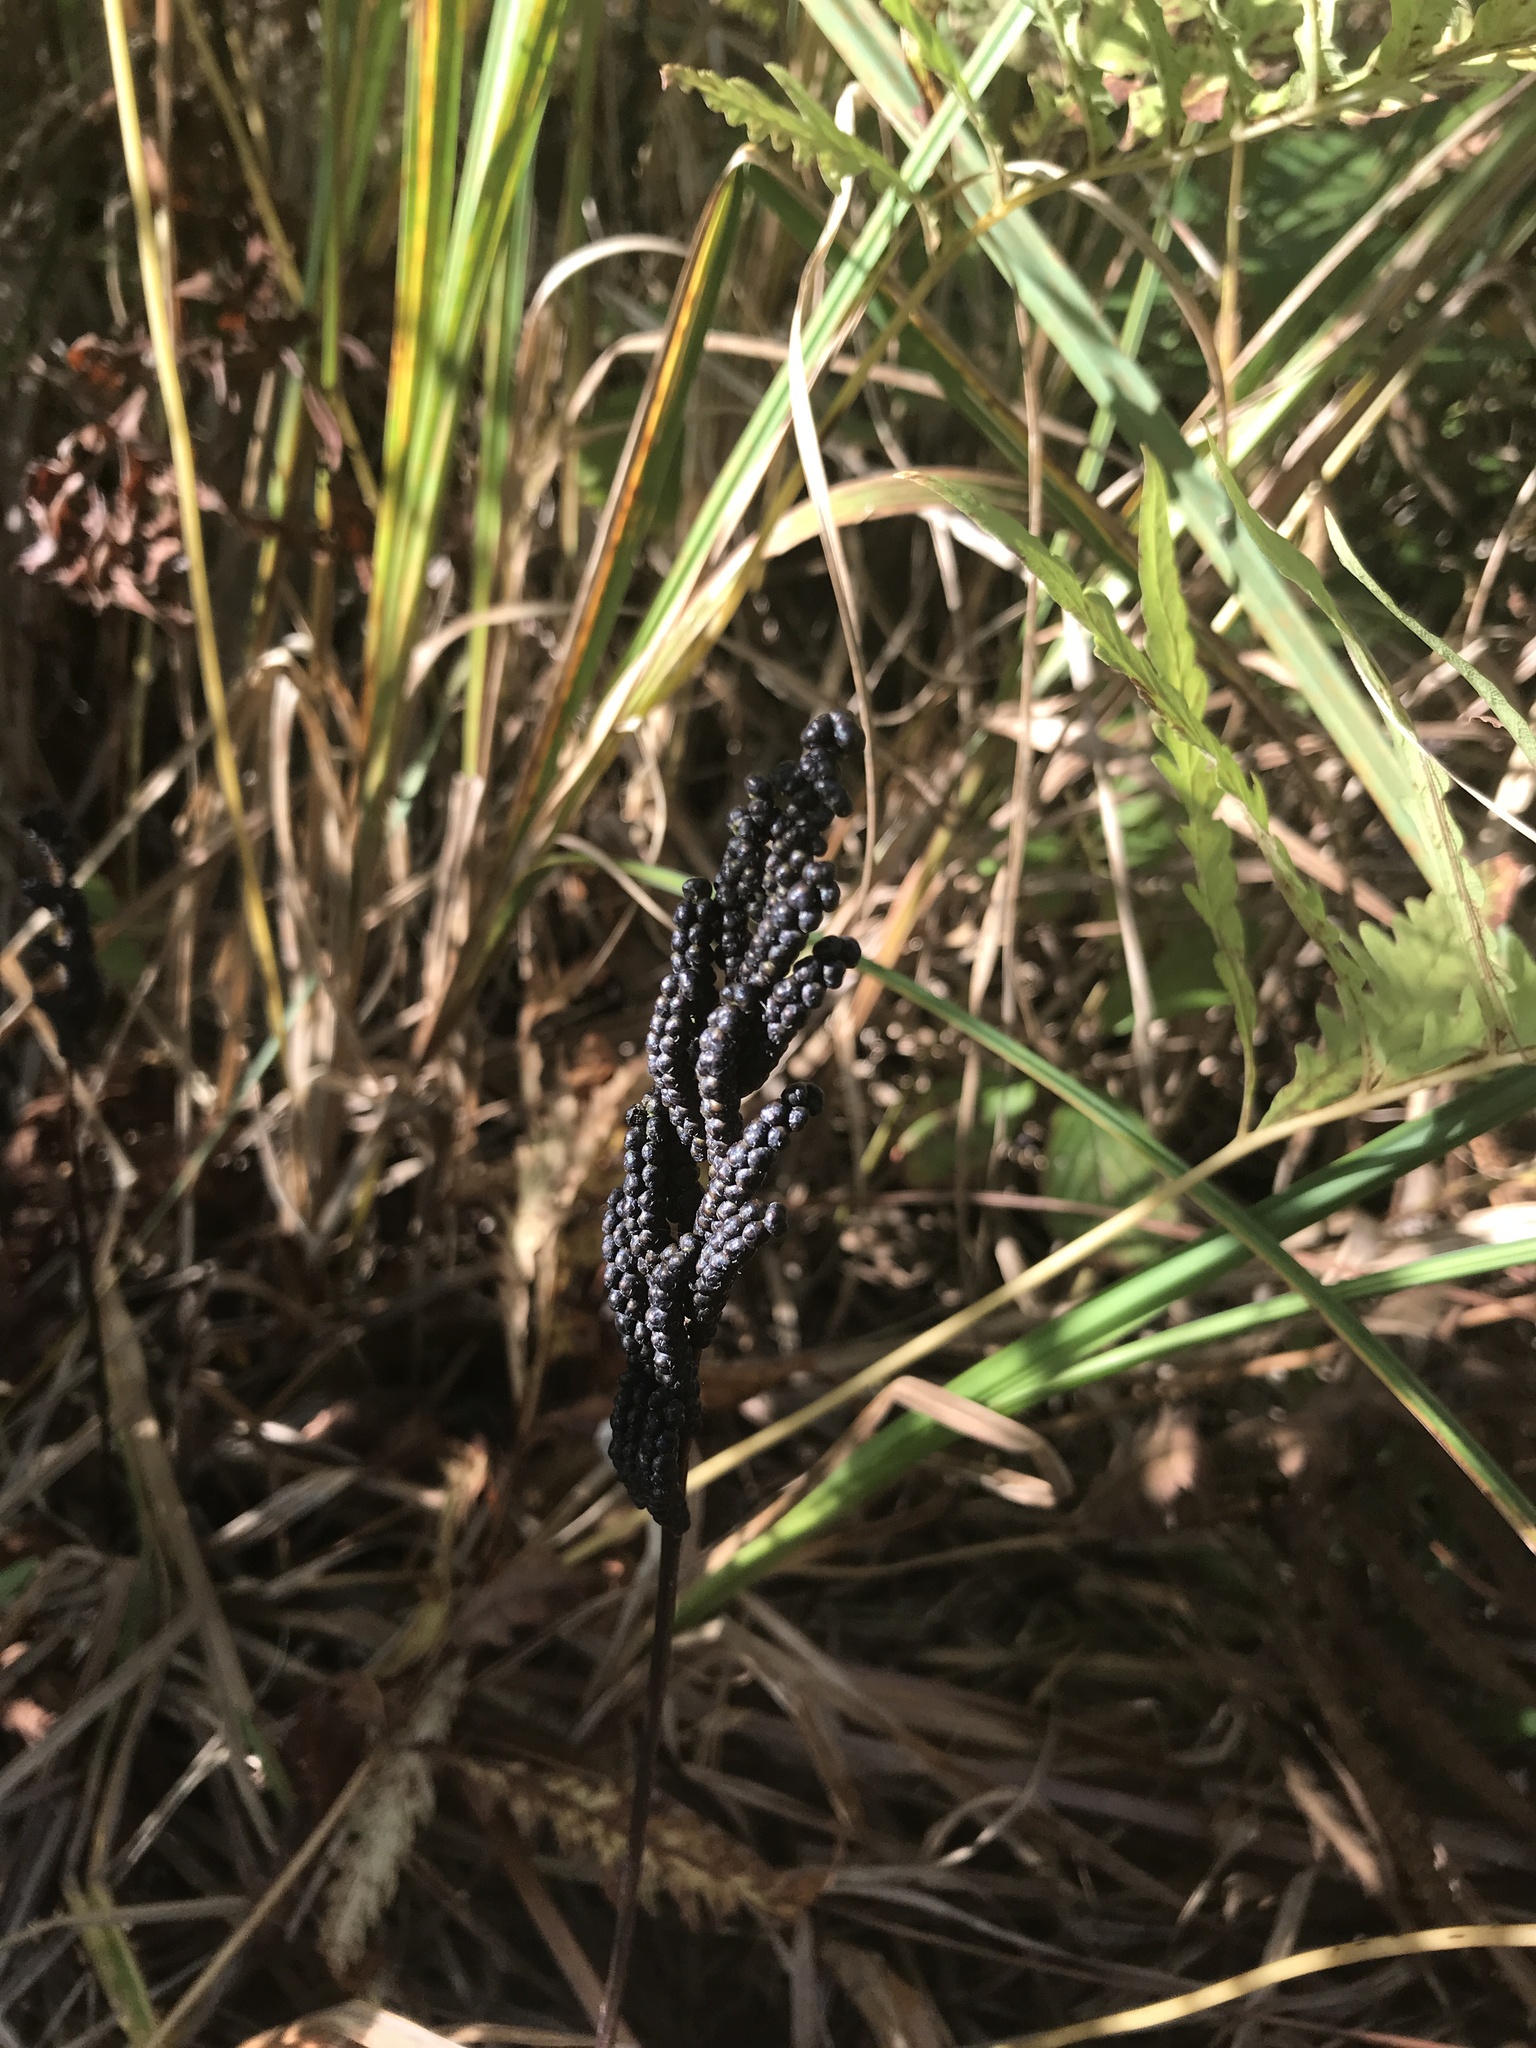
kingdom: Plantae
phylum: Tracheophyta
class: Polypodiopsida
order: Polypodiales
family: Onocleaceae
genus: Onoclea
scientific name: Onoclea sensibilis
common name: Sensitive fern
